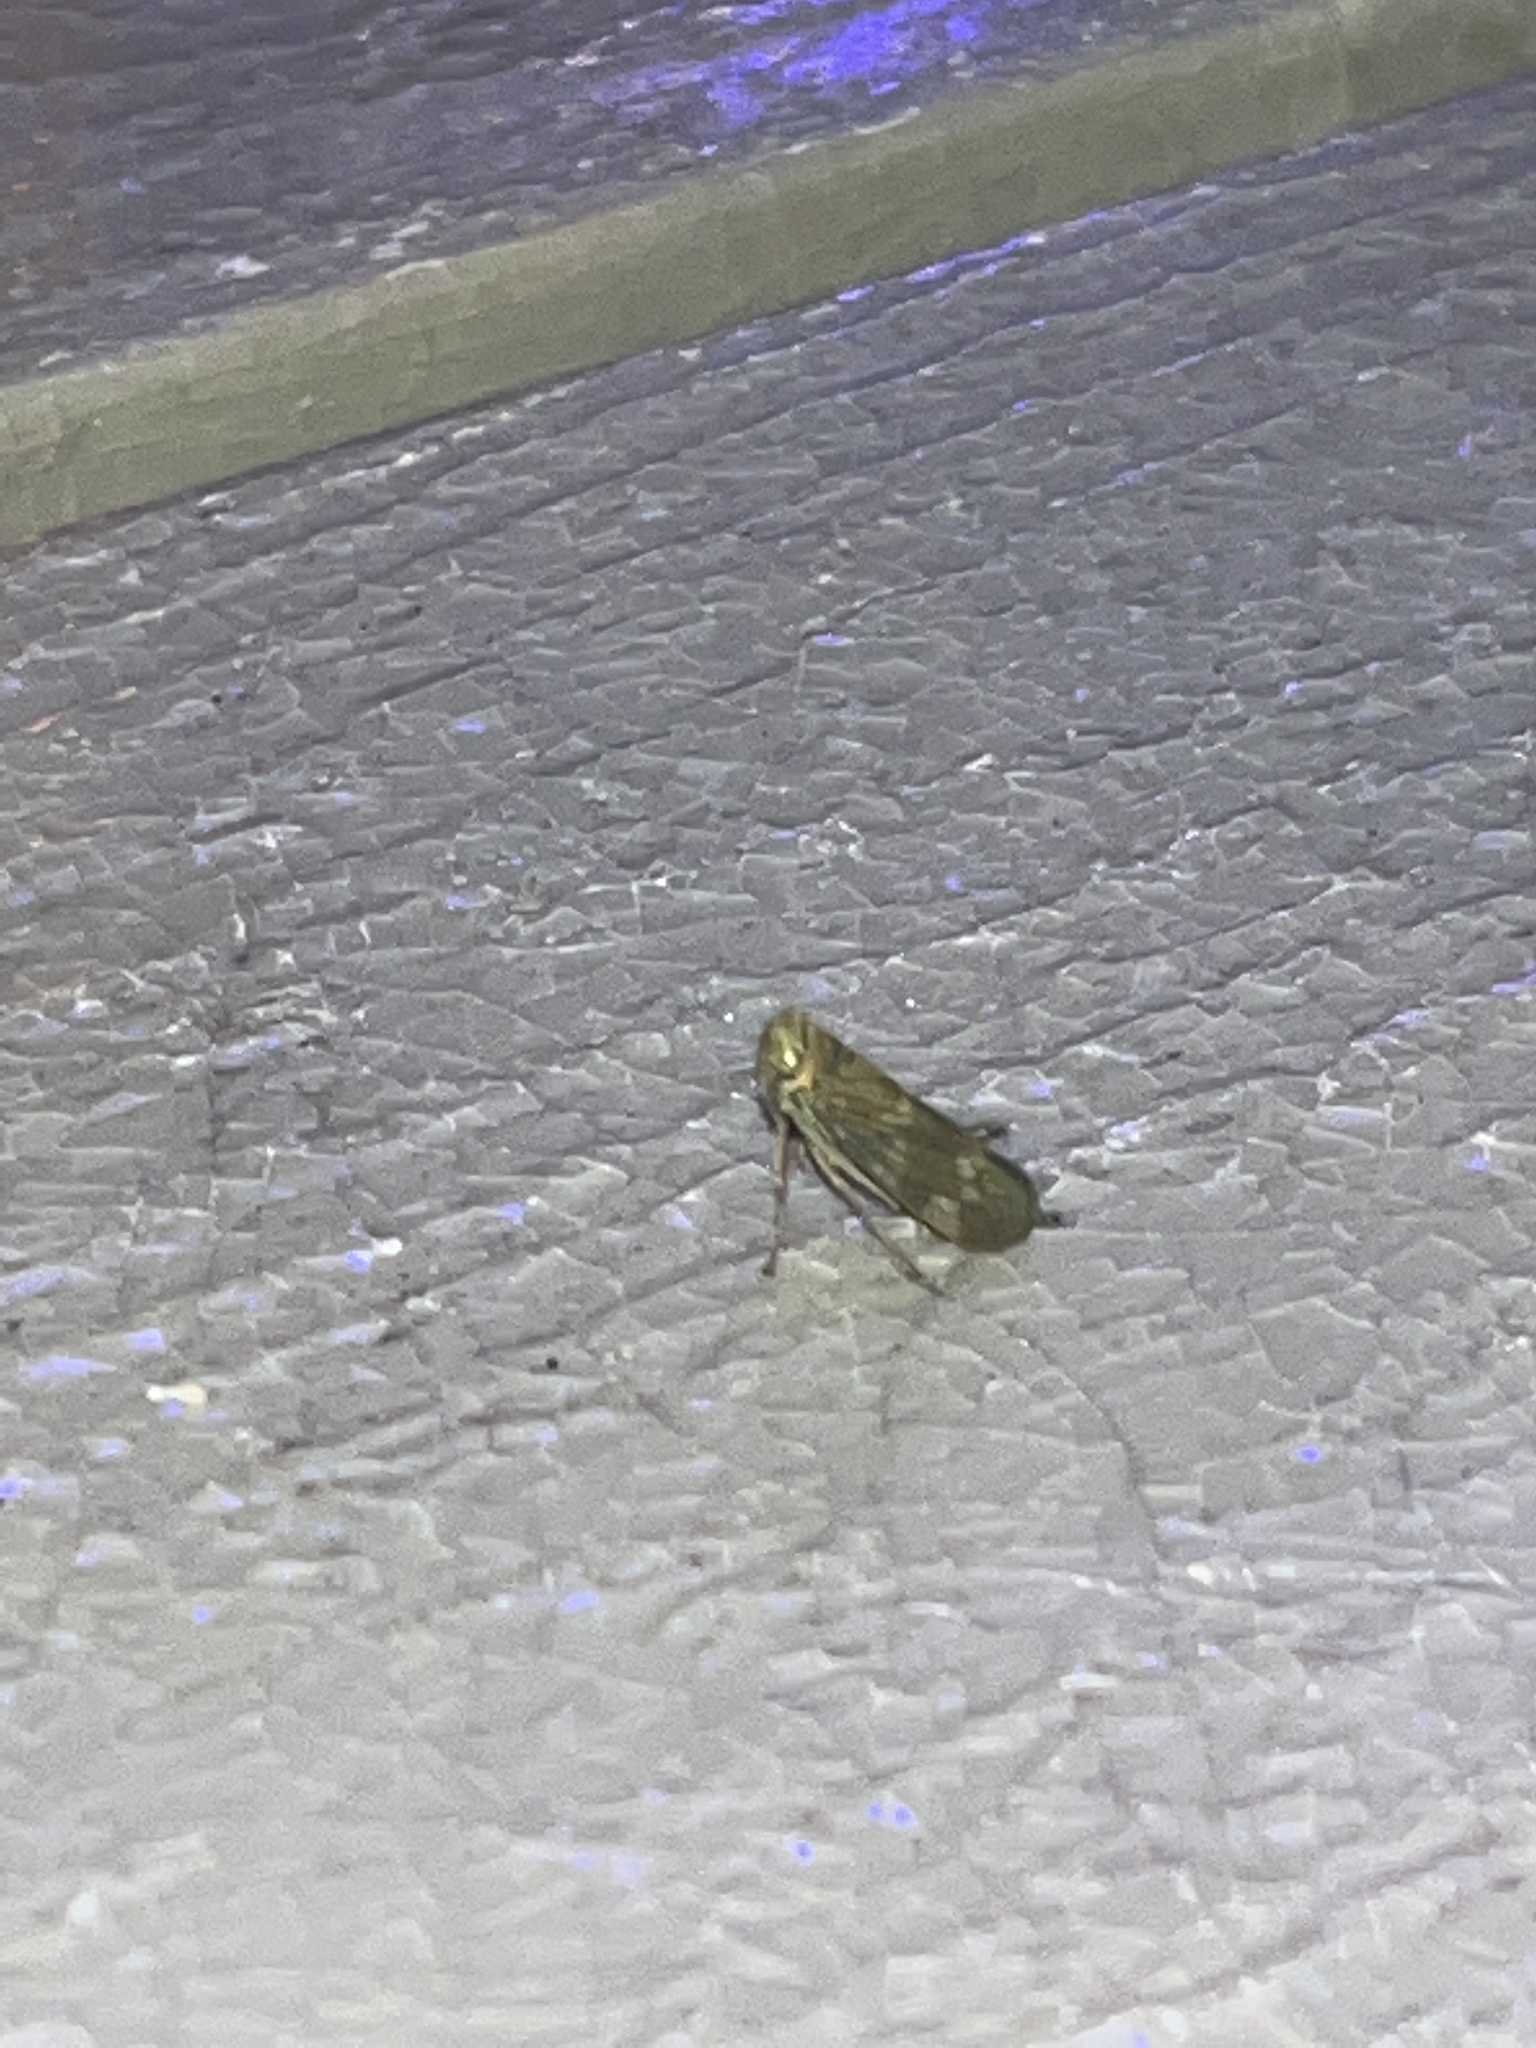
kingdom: Animalia
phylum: Arthropoda
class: Insecta
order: Hemiptera
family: Cicadellidae
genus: Jikradia
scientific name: Jikradia olitoria
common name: Coppery leafhopper
